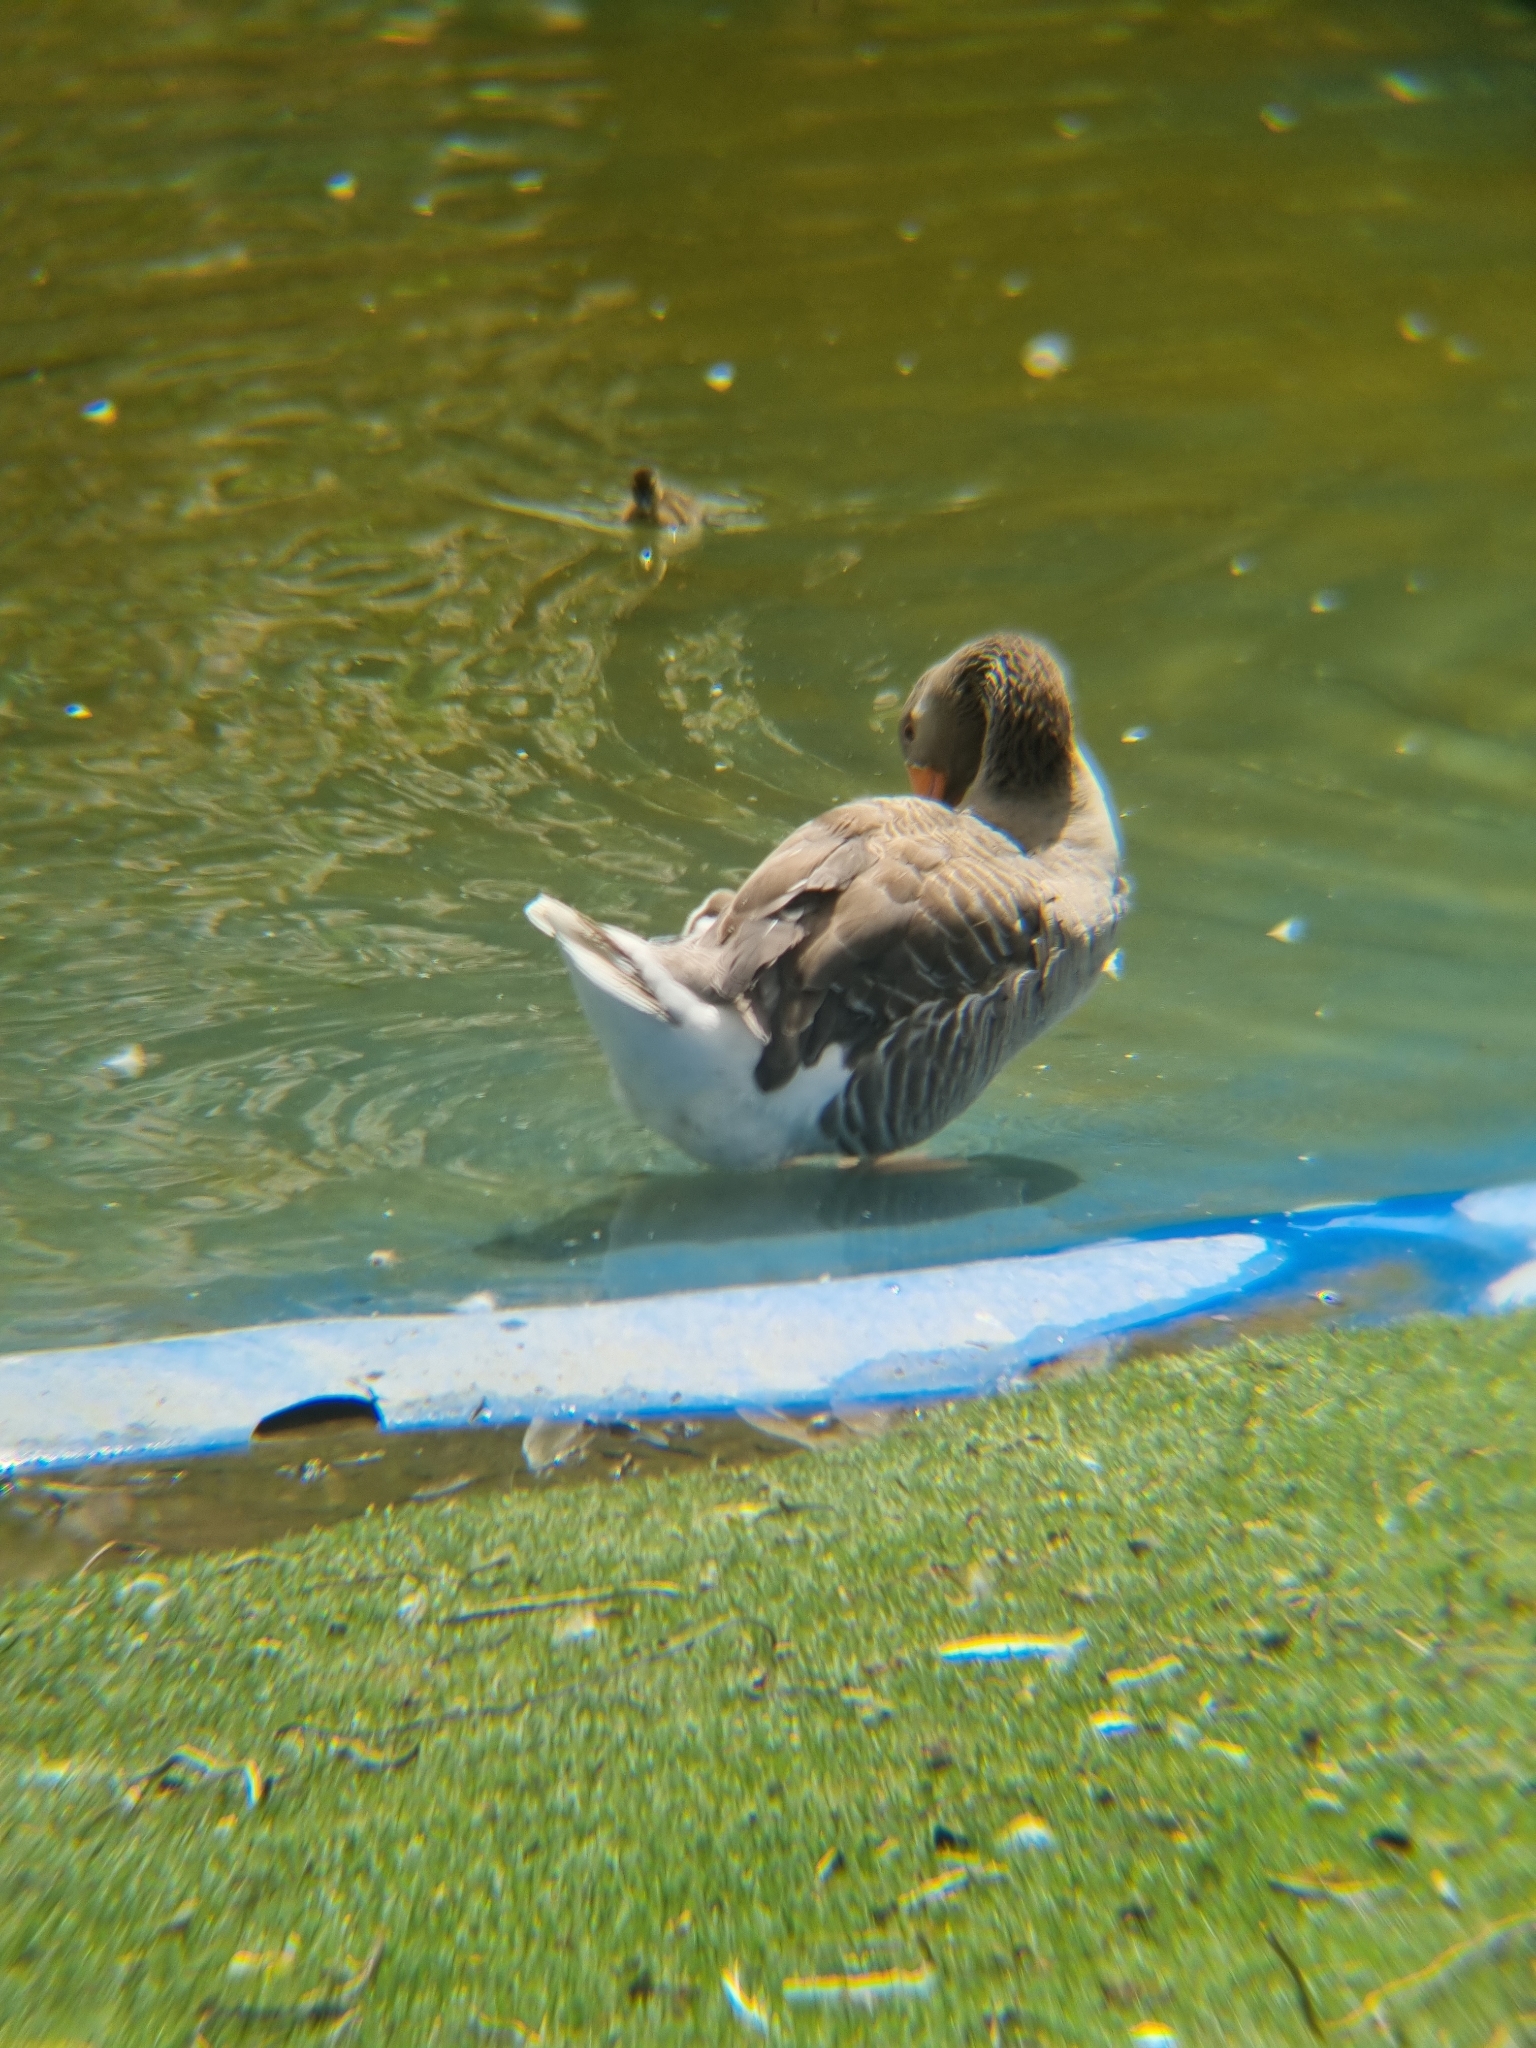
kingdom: Animalia
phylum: Chordata
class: Aves
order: Anseriformes
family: Anatidae
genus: Anser
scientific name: Anser anser
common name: Greylag goose
